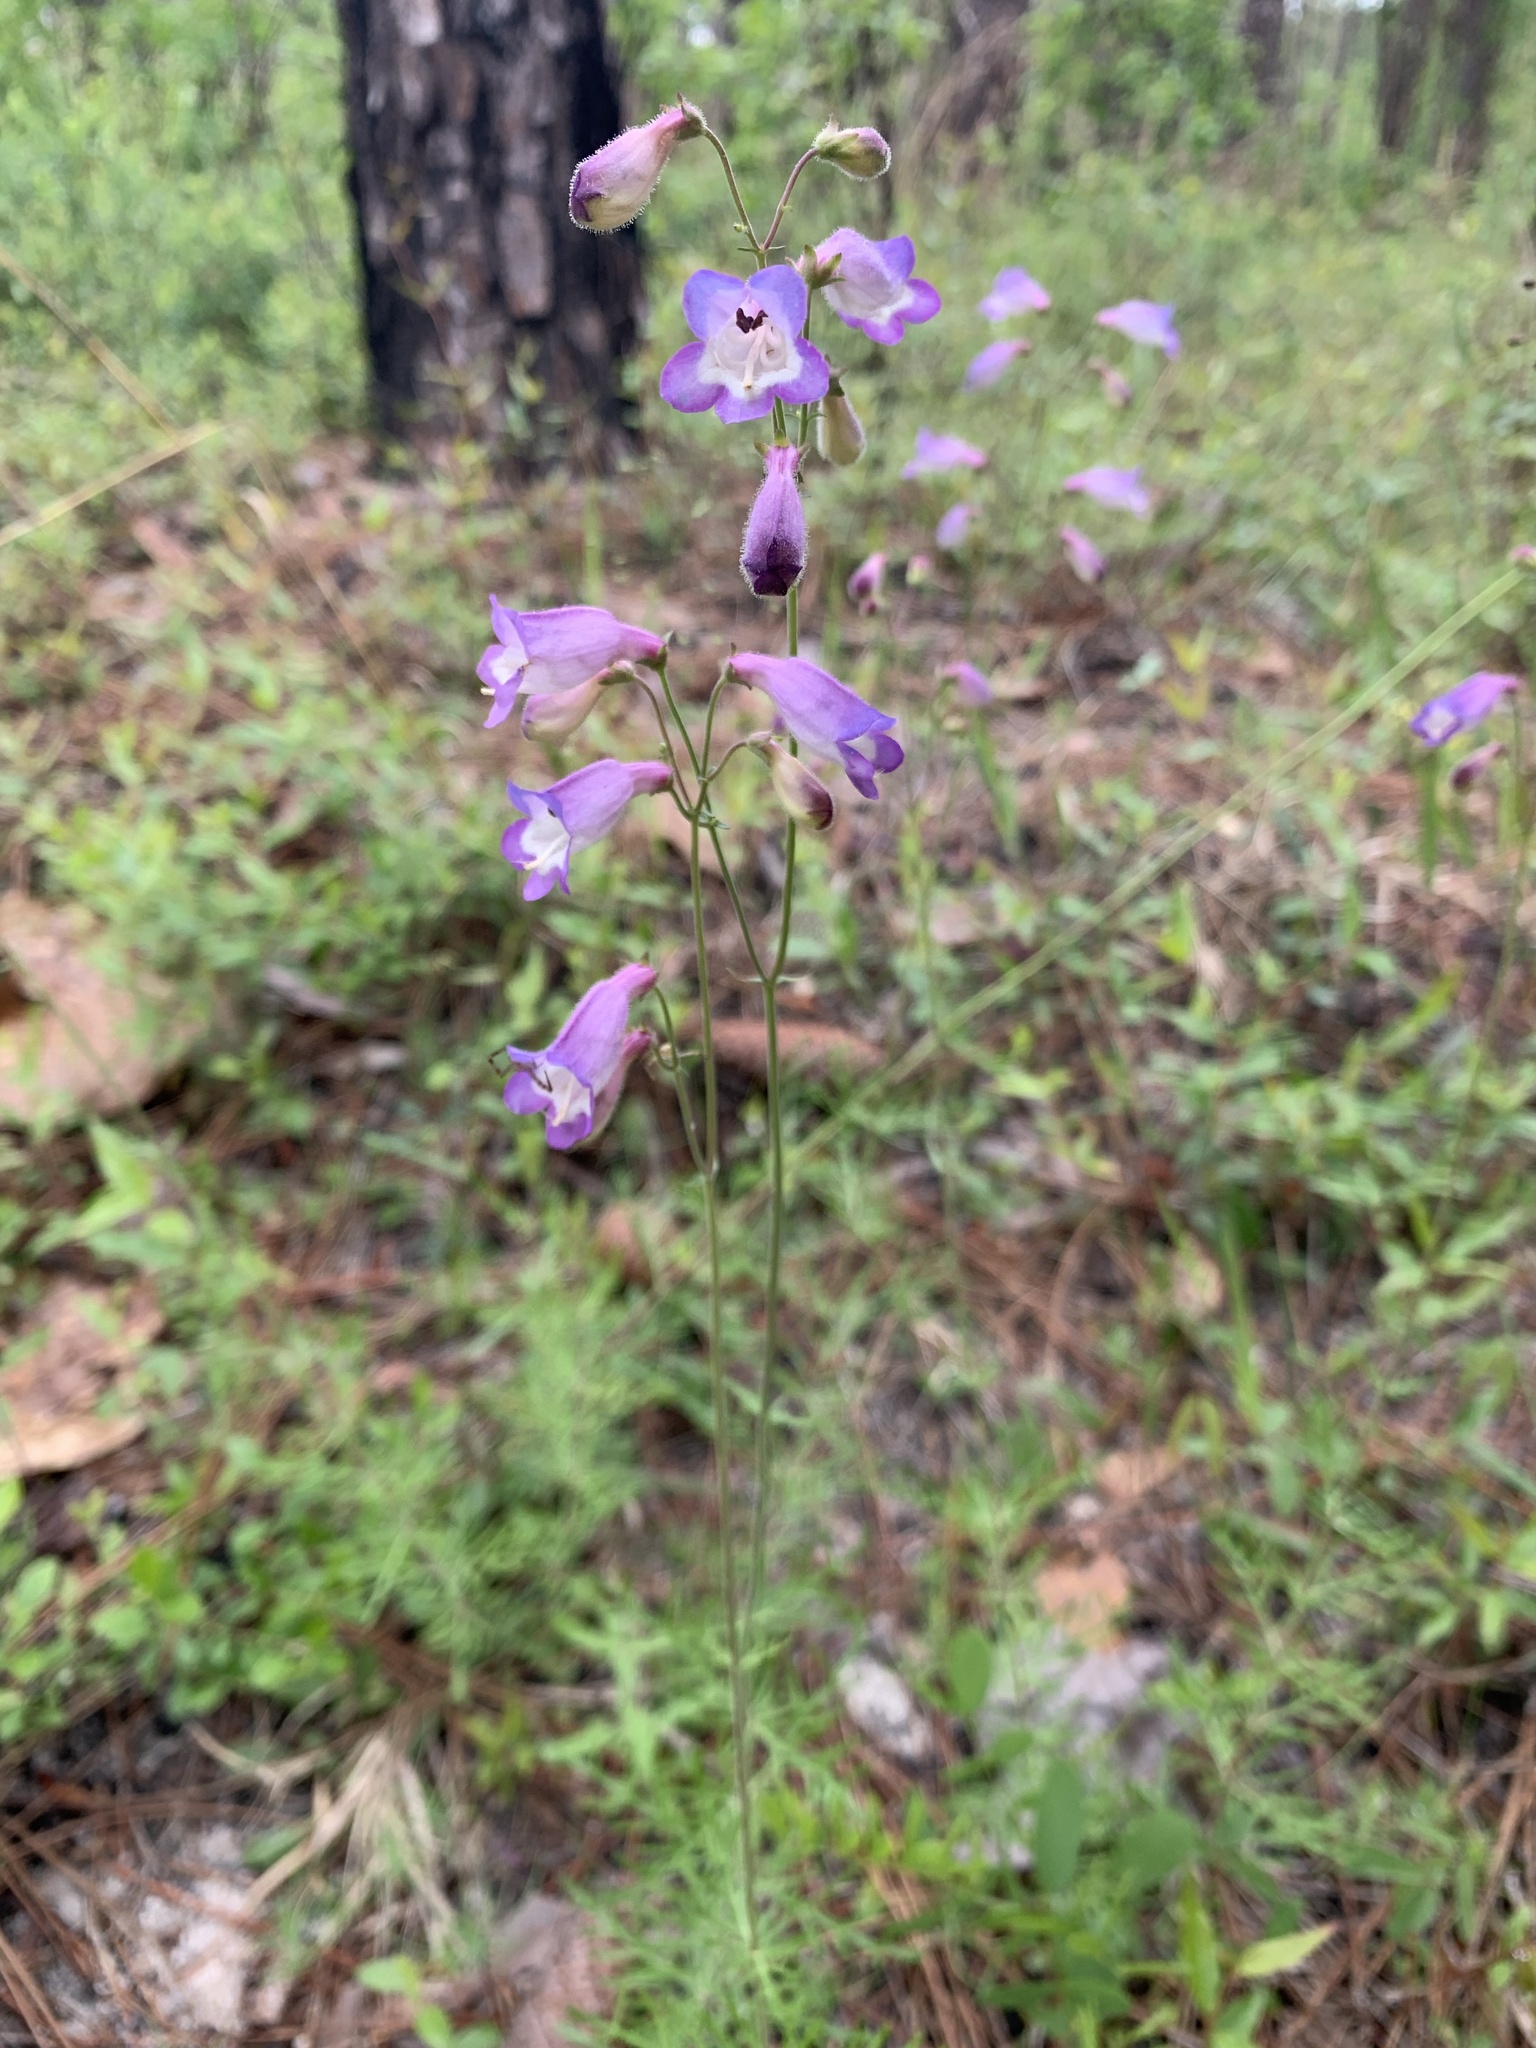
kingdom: Plantae
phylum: Tracheophyta
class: Magnoliopsida
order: Lamiales
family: Plantaginaceae
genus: Penstemon
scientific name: Penstemon dissectus
